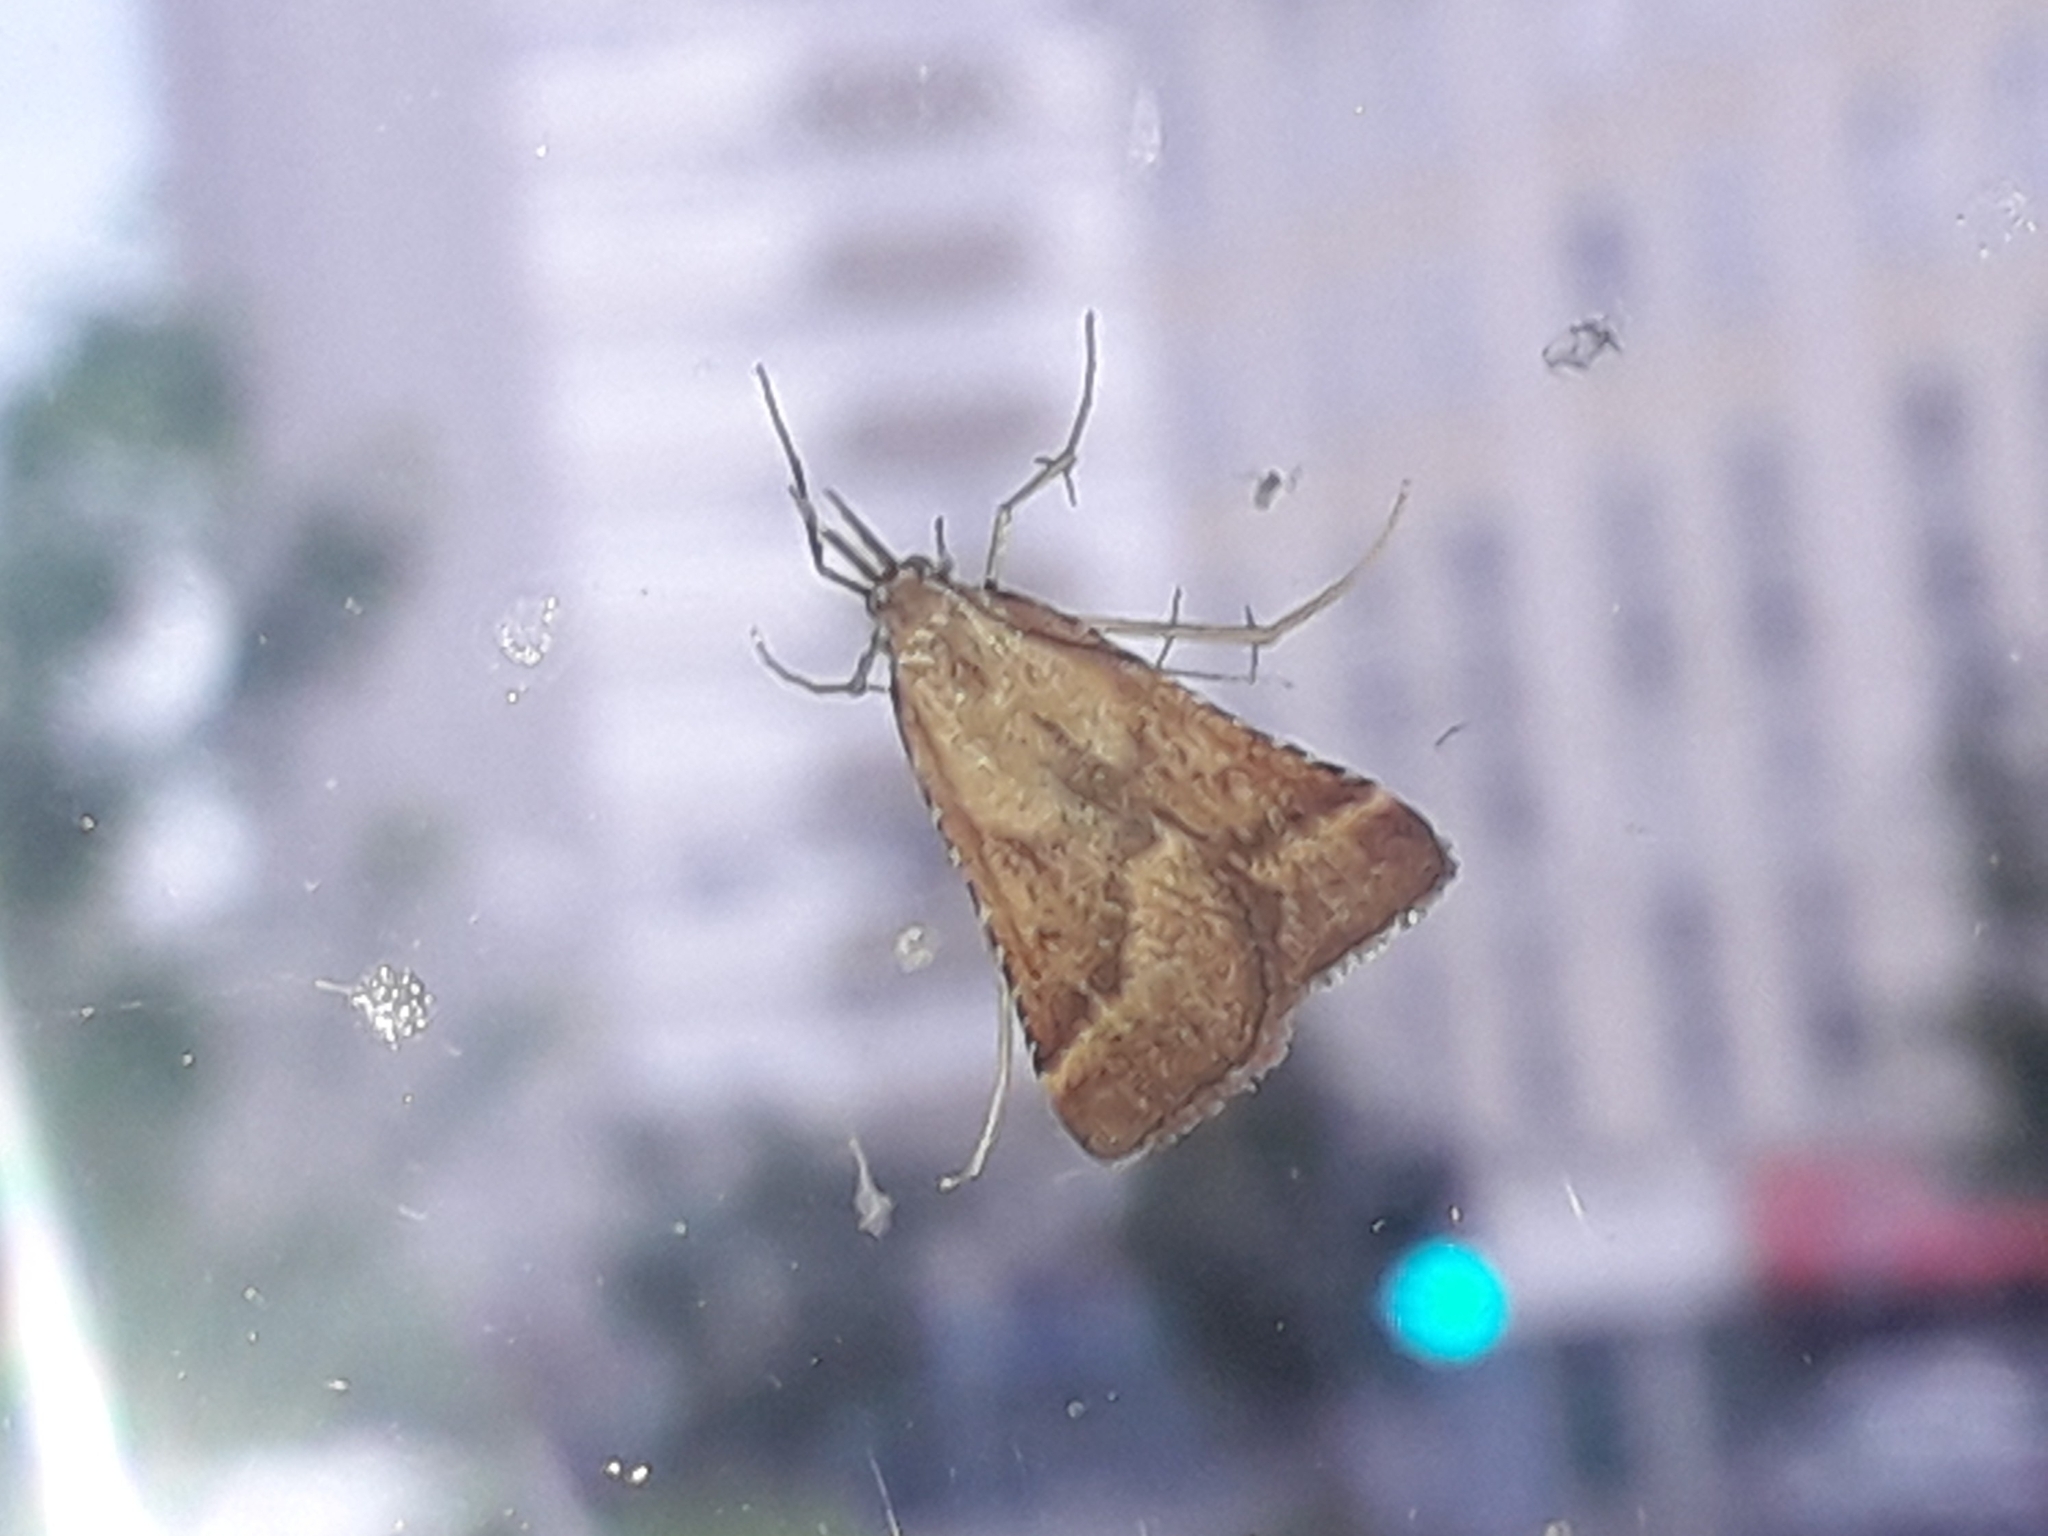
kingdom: Animalia
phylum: Arthropoda
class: Insecta
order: Lepidoptera
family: Pyralidae
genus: Synaphe
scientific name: Synaphe punctalis
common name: Long-legged tabby
